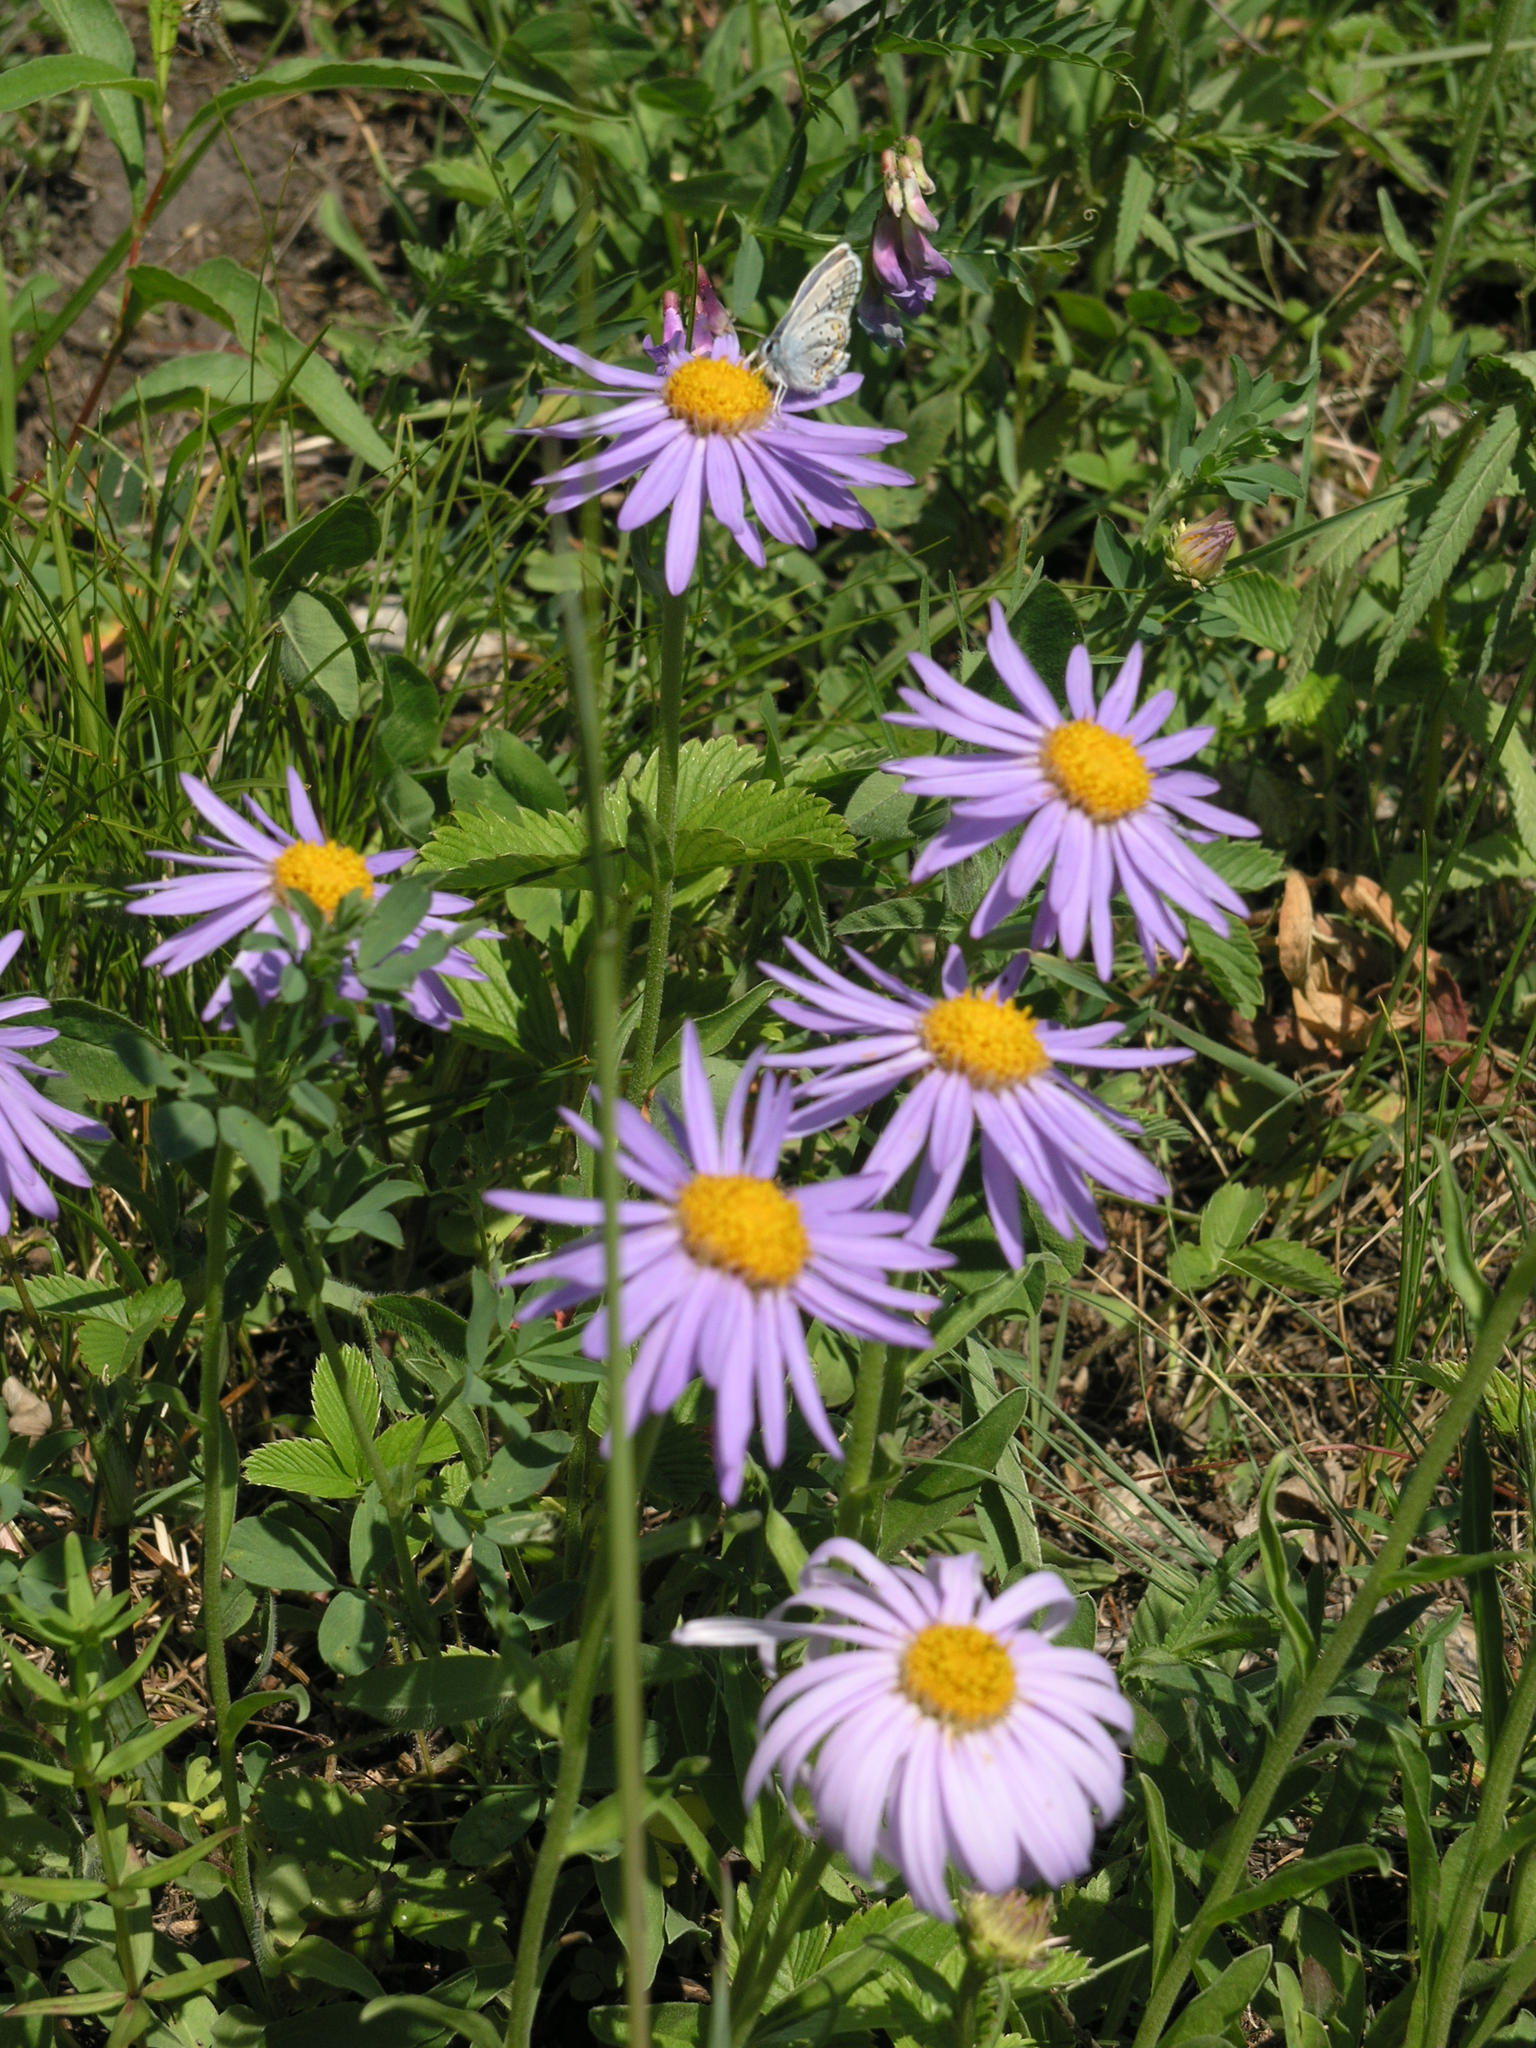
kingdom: Plantae
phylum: Tracheophyta
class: Magnoliopsida
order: Asterales
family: Asteraceae
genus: Aster
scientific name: Aster alpinus
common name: Alpine aster
